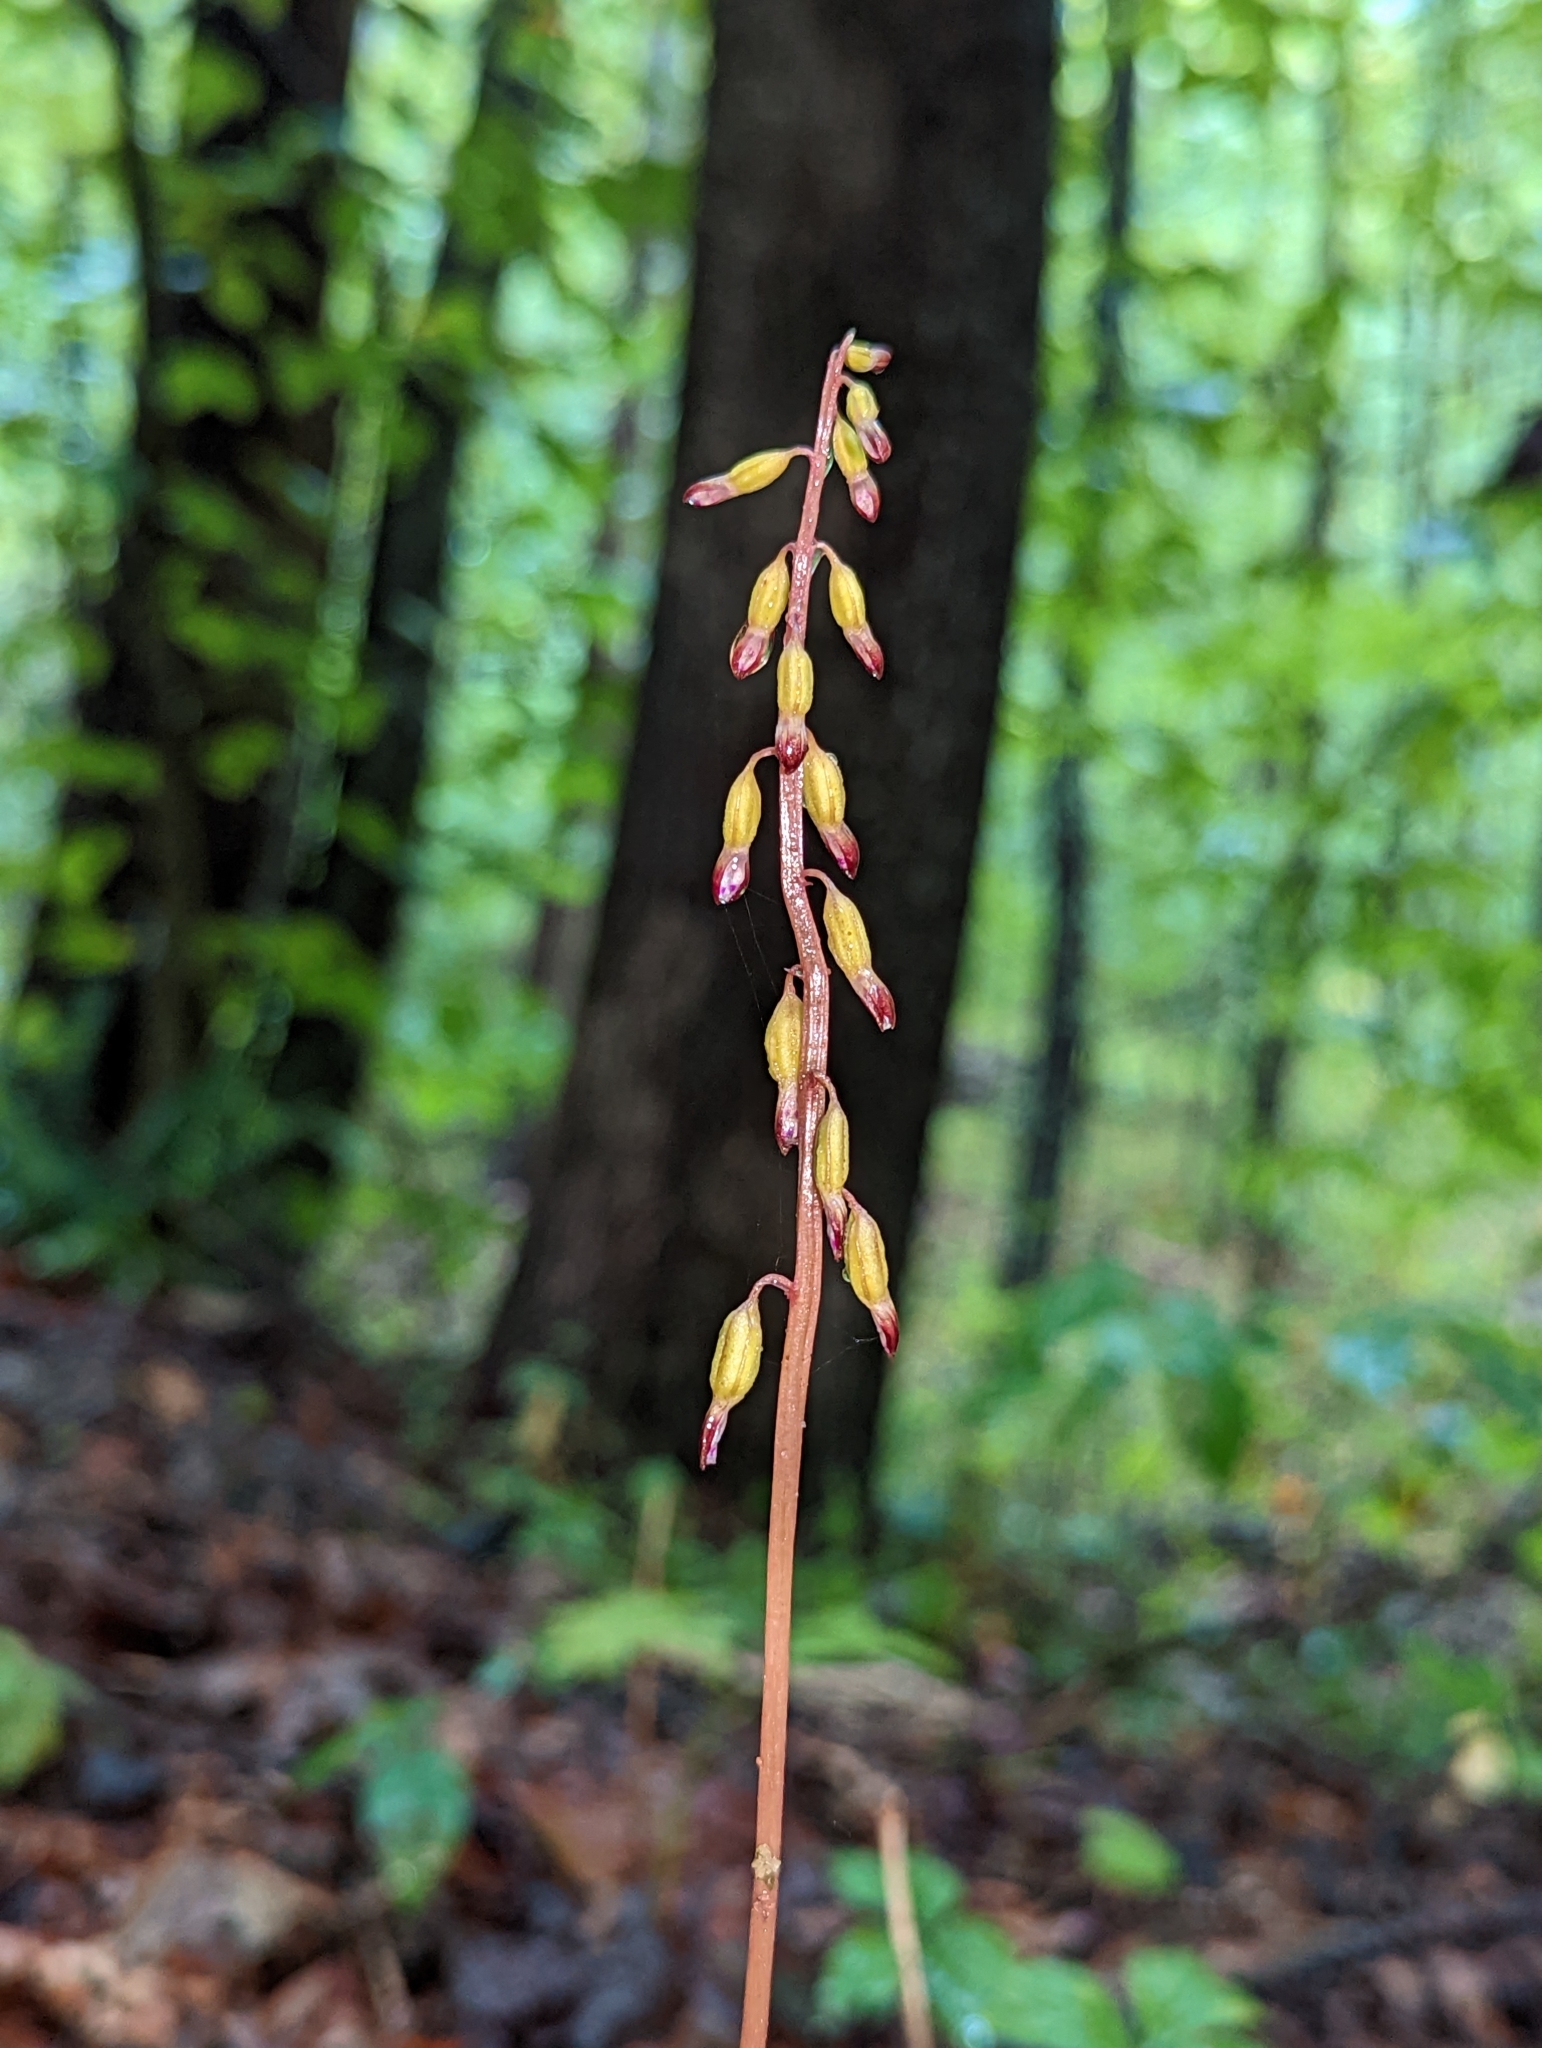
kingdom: Plantae
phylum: Tracheophyta
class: Liliopsida
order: Asparagales
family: Orchidaceae
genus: Corallorhiza
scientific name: Corallorhiza odontorhiza
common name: Autumn coralroot
